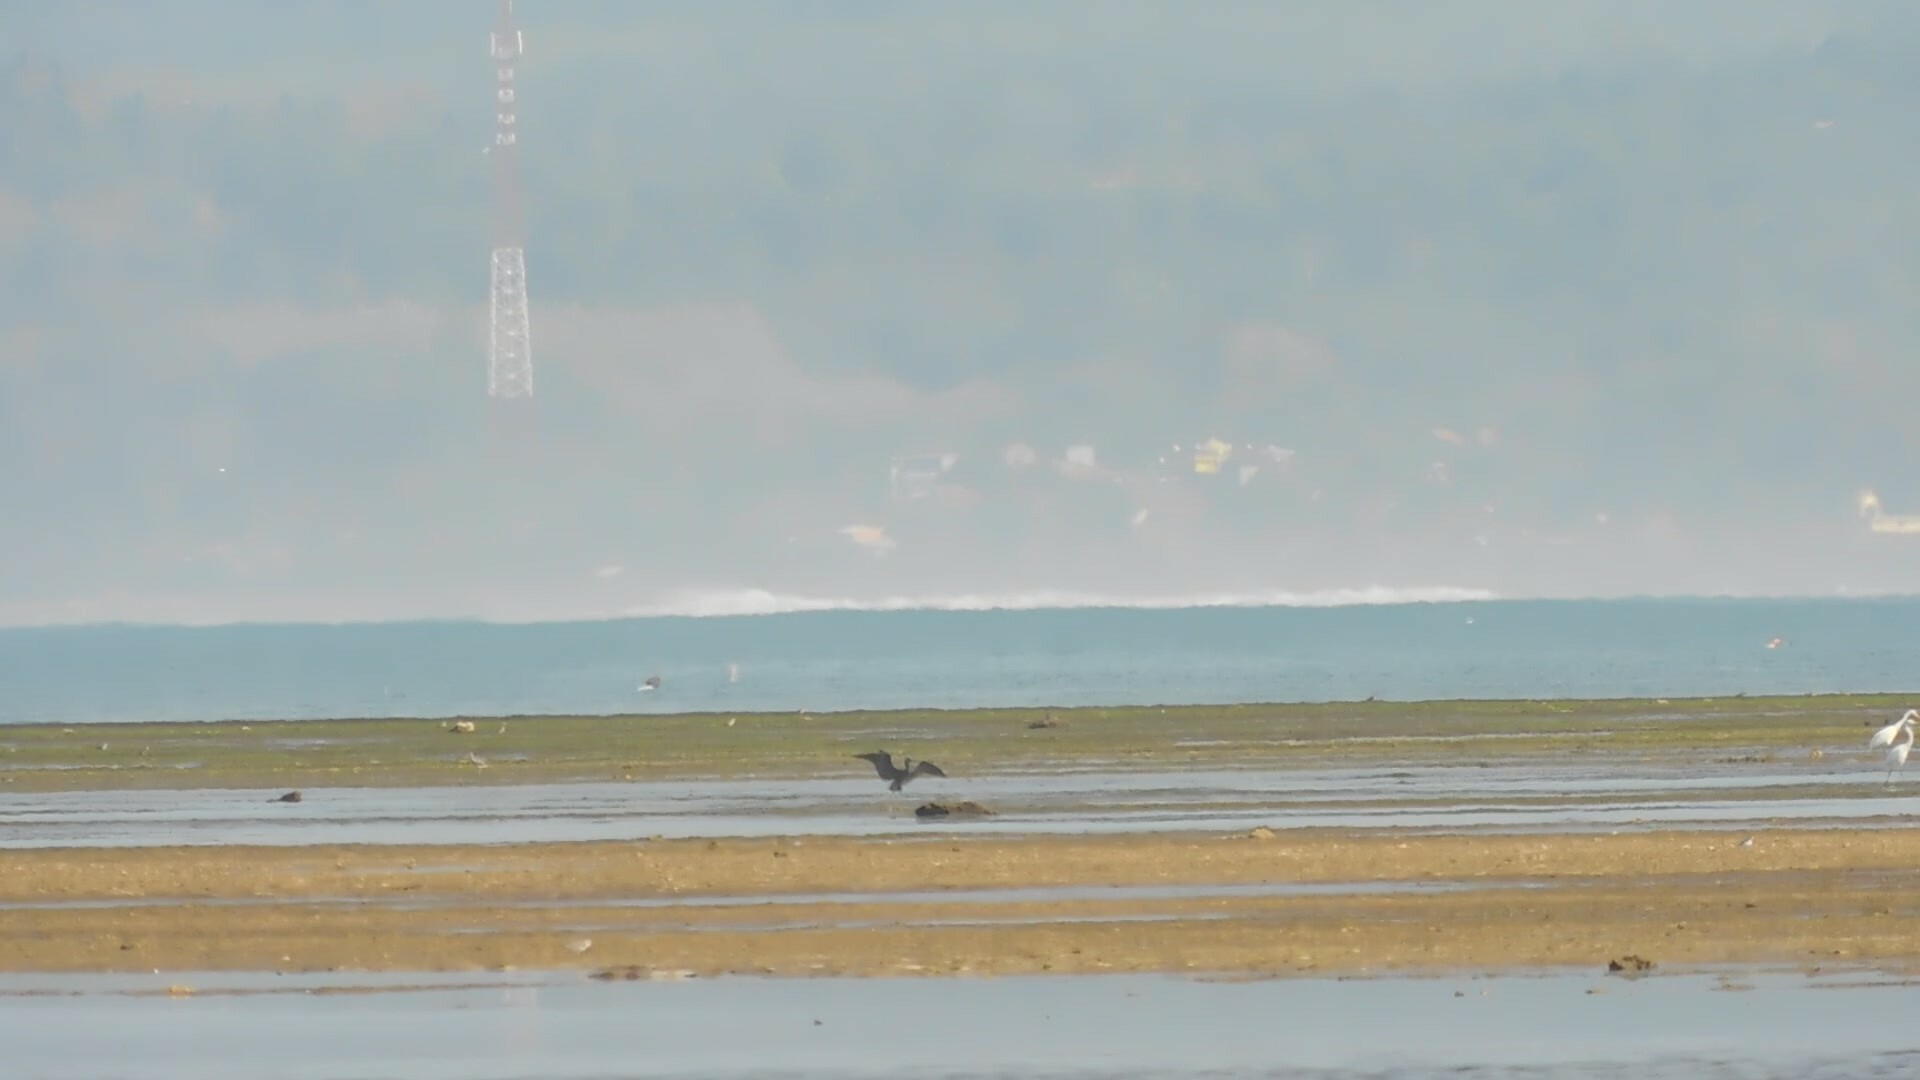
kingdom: Animalia
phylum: Chordata
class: Aves
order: Pelecaniformes
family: Ardeidae
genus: Egretta
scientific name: Egretta sacra
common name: Pacific reef heron
